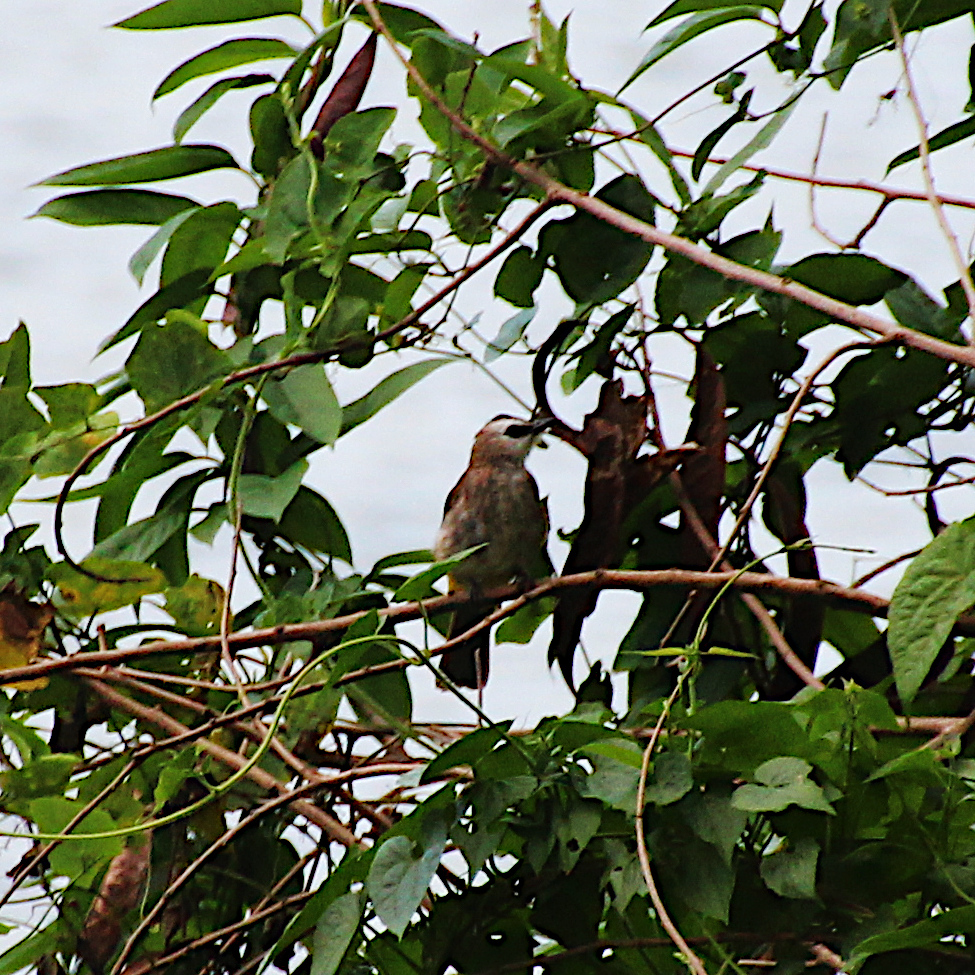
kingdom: Animalia
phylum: Chordata
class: Aves
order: Passeriformes
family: Pycnonotidae
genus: Pycnonotus
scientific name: Pycnonotus goiavier
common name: Yellow-vented bulbul
